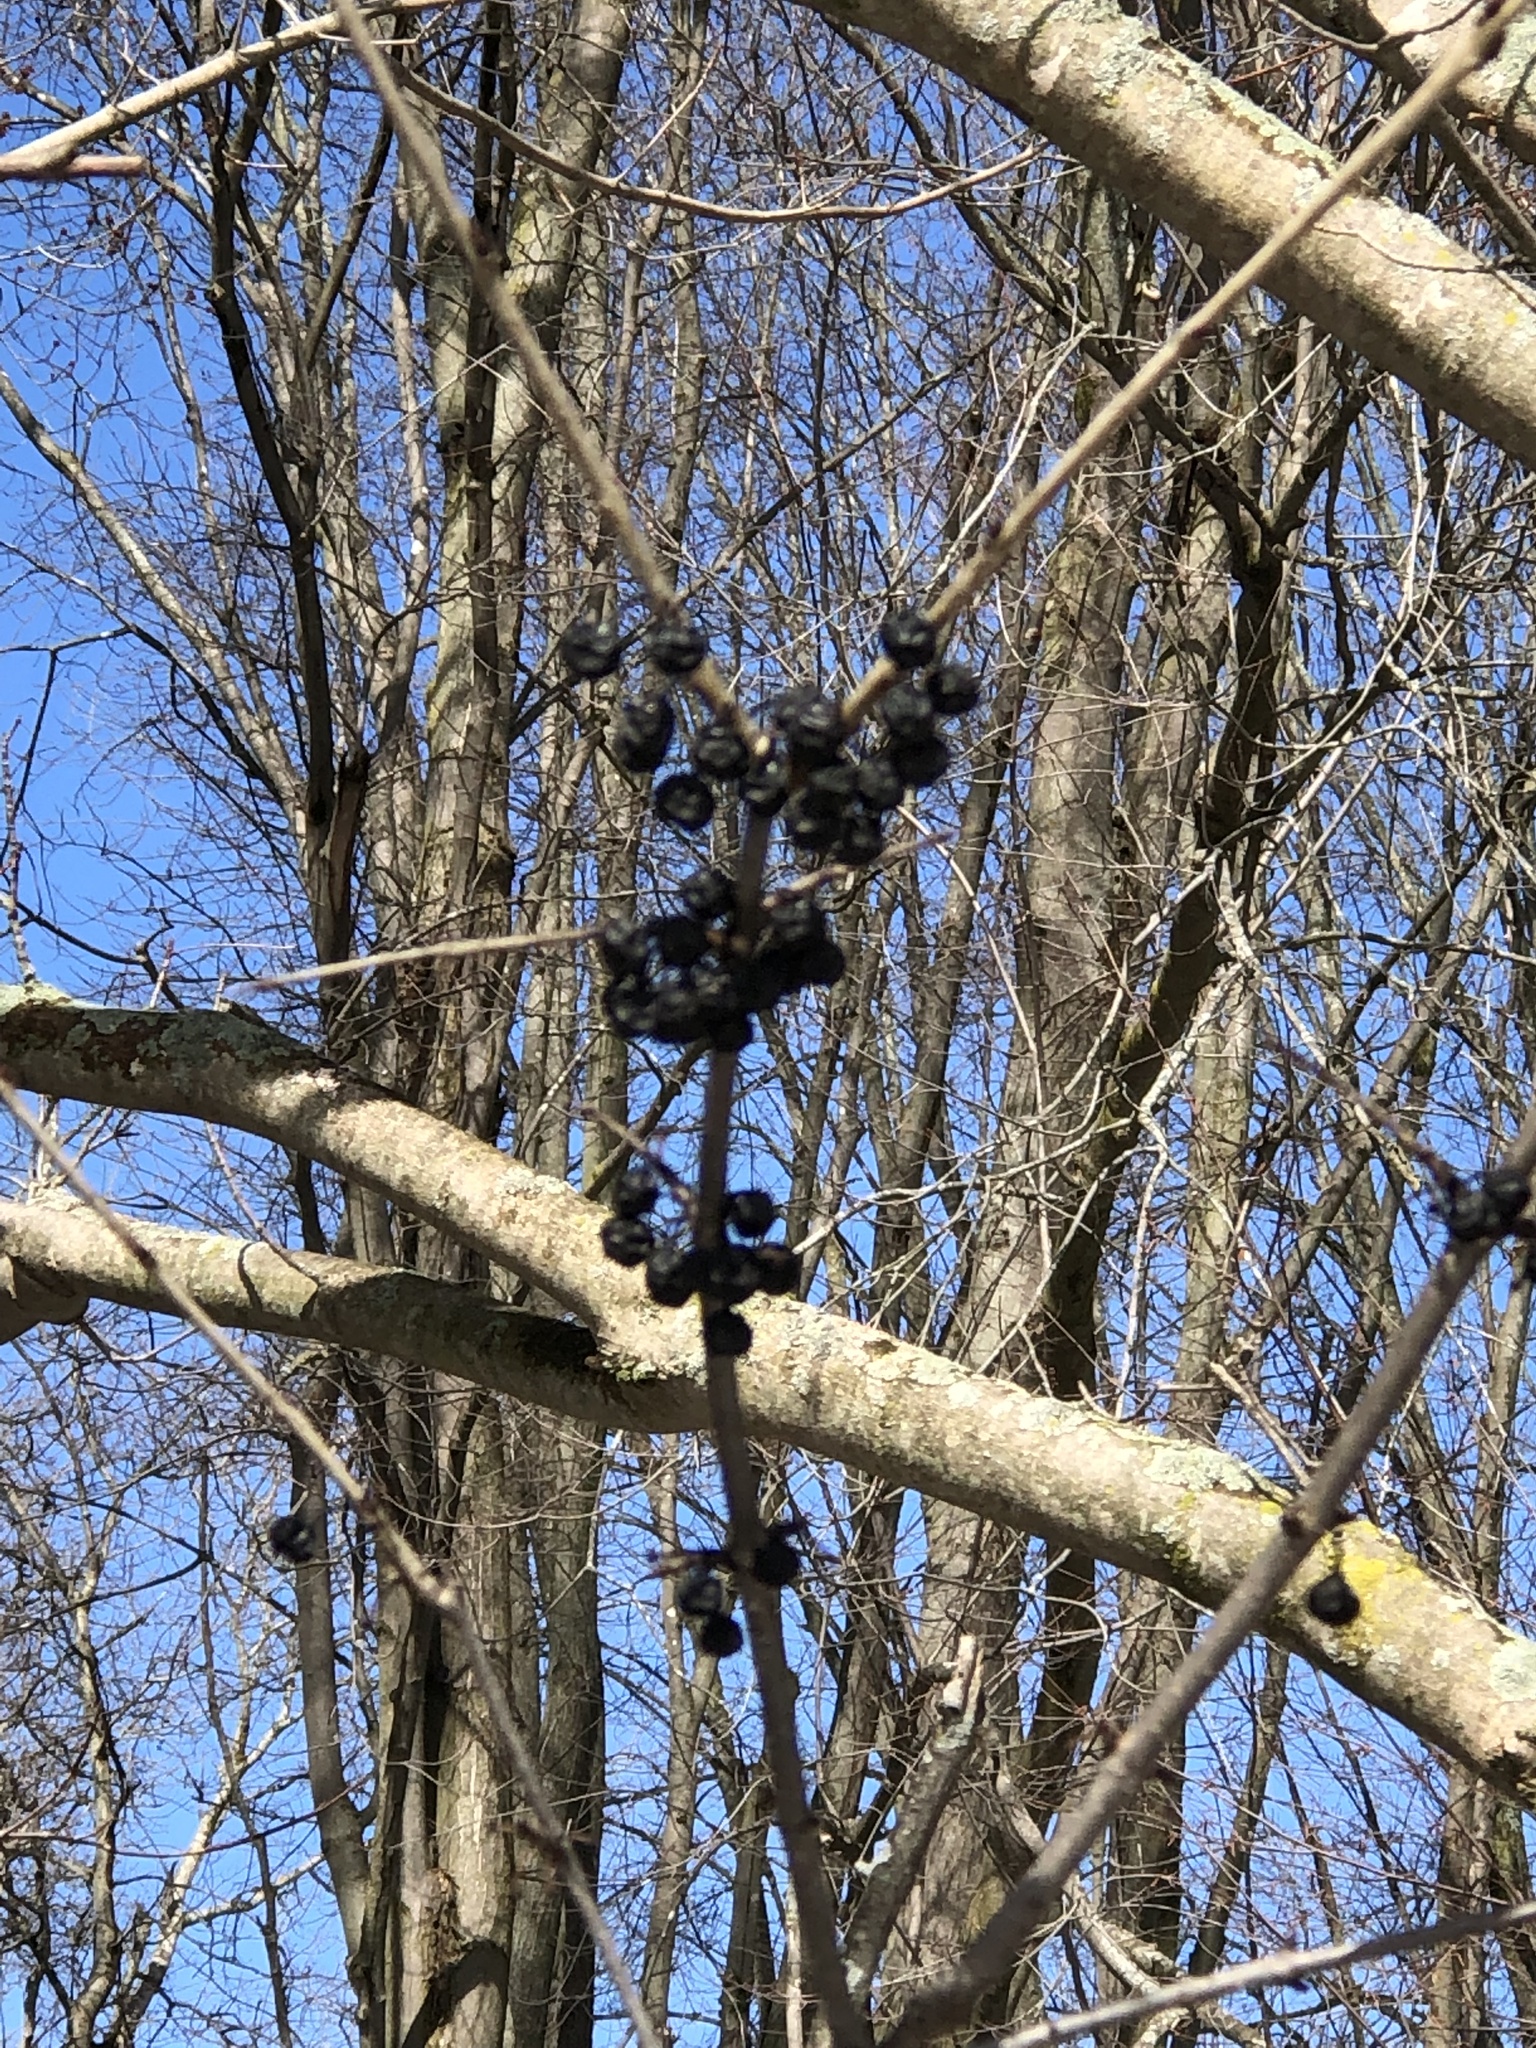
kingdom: Plantae
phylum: Tracheophyta
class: Magnoliopsida
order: Rosales
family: Rhamnaceae
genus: Rhamnus
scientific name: Rhamnus cathartica
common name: Common buckthorn
